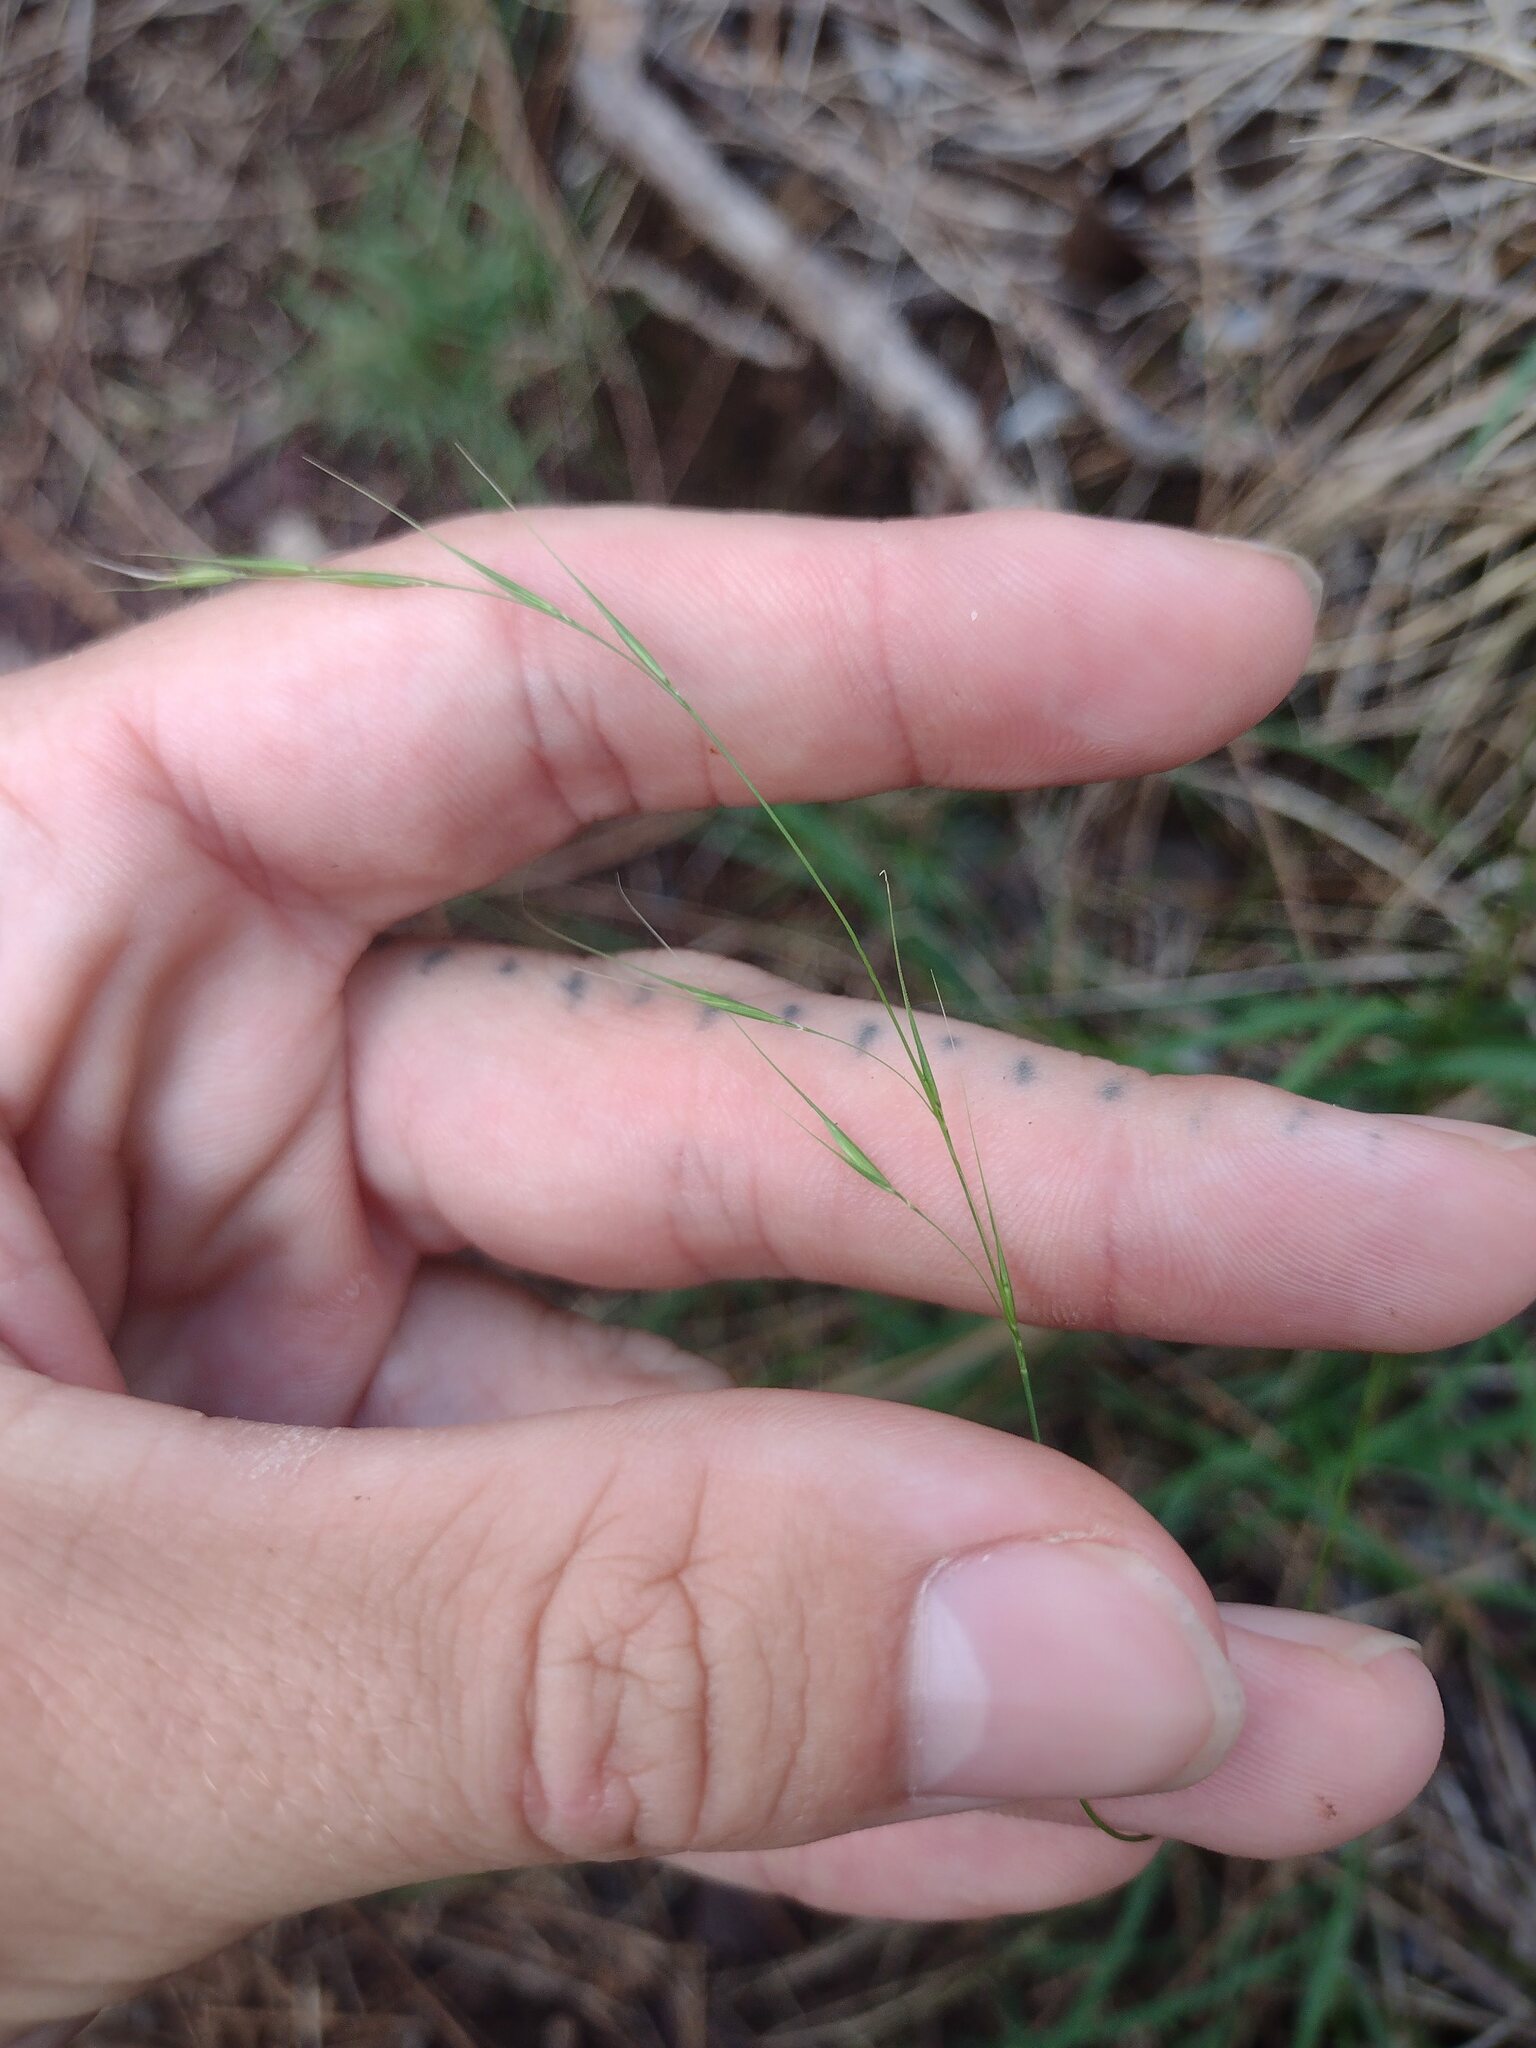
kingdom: Plantae
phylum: Tracheophyta
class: Liliopsida
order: Poales
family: Poaceae
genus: Microlaena
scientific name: Microlaena stipoides
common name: Meadow ricegrass
